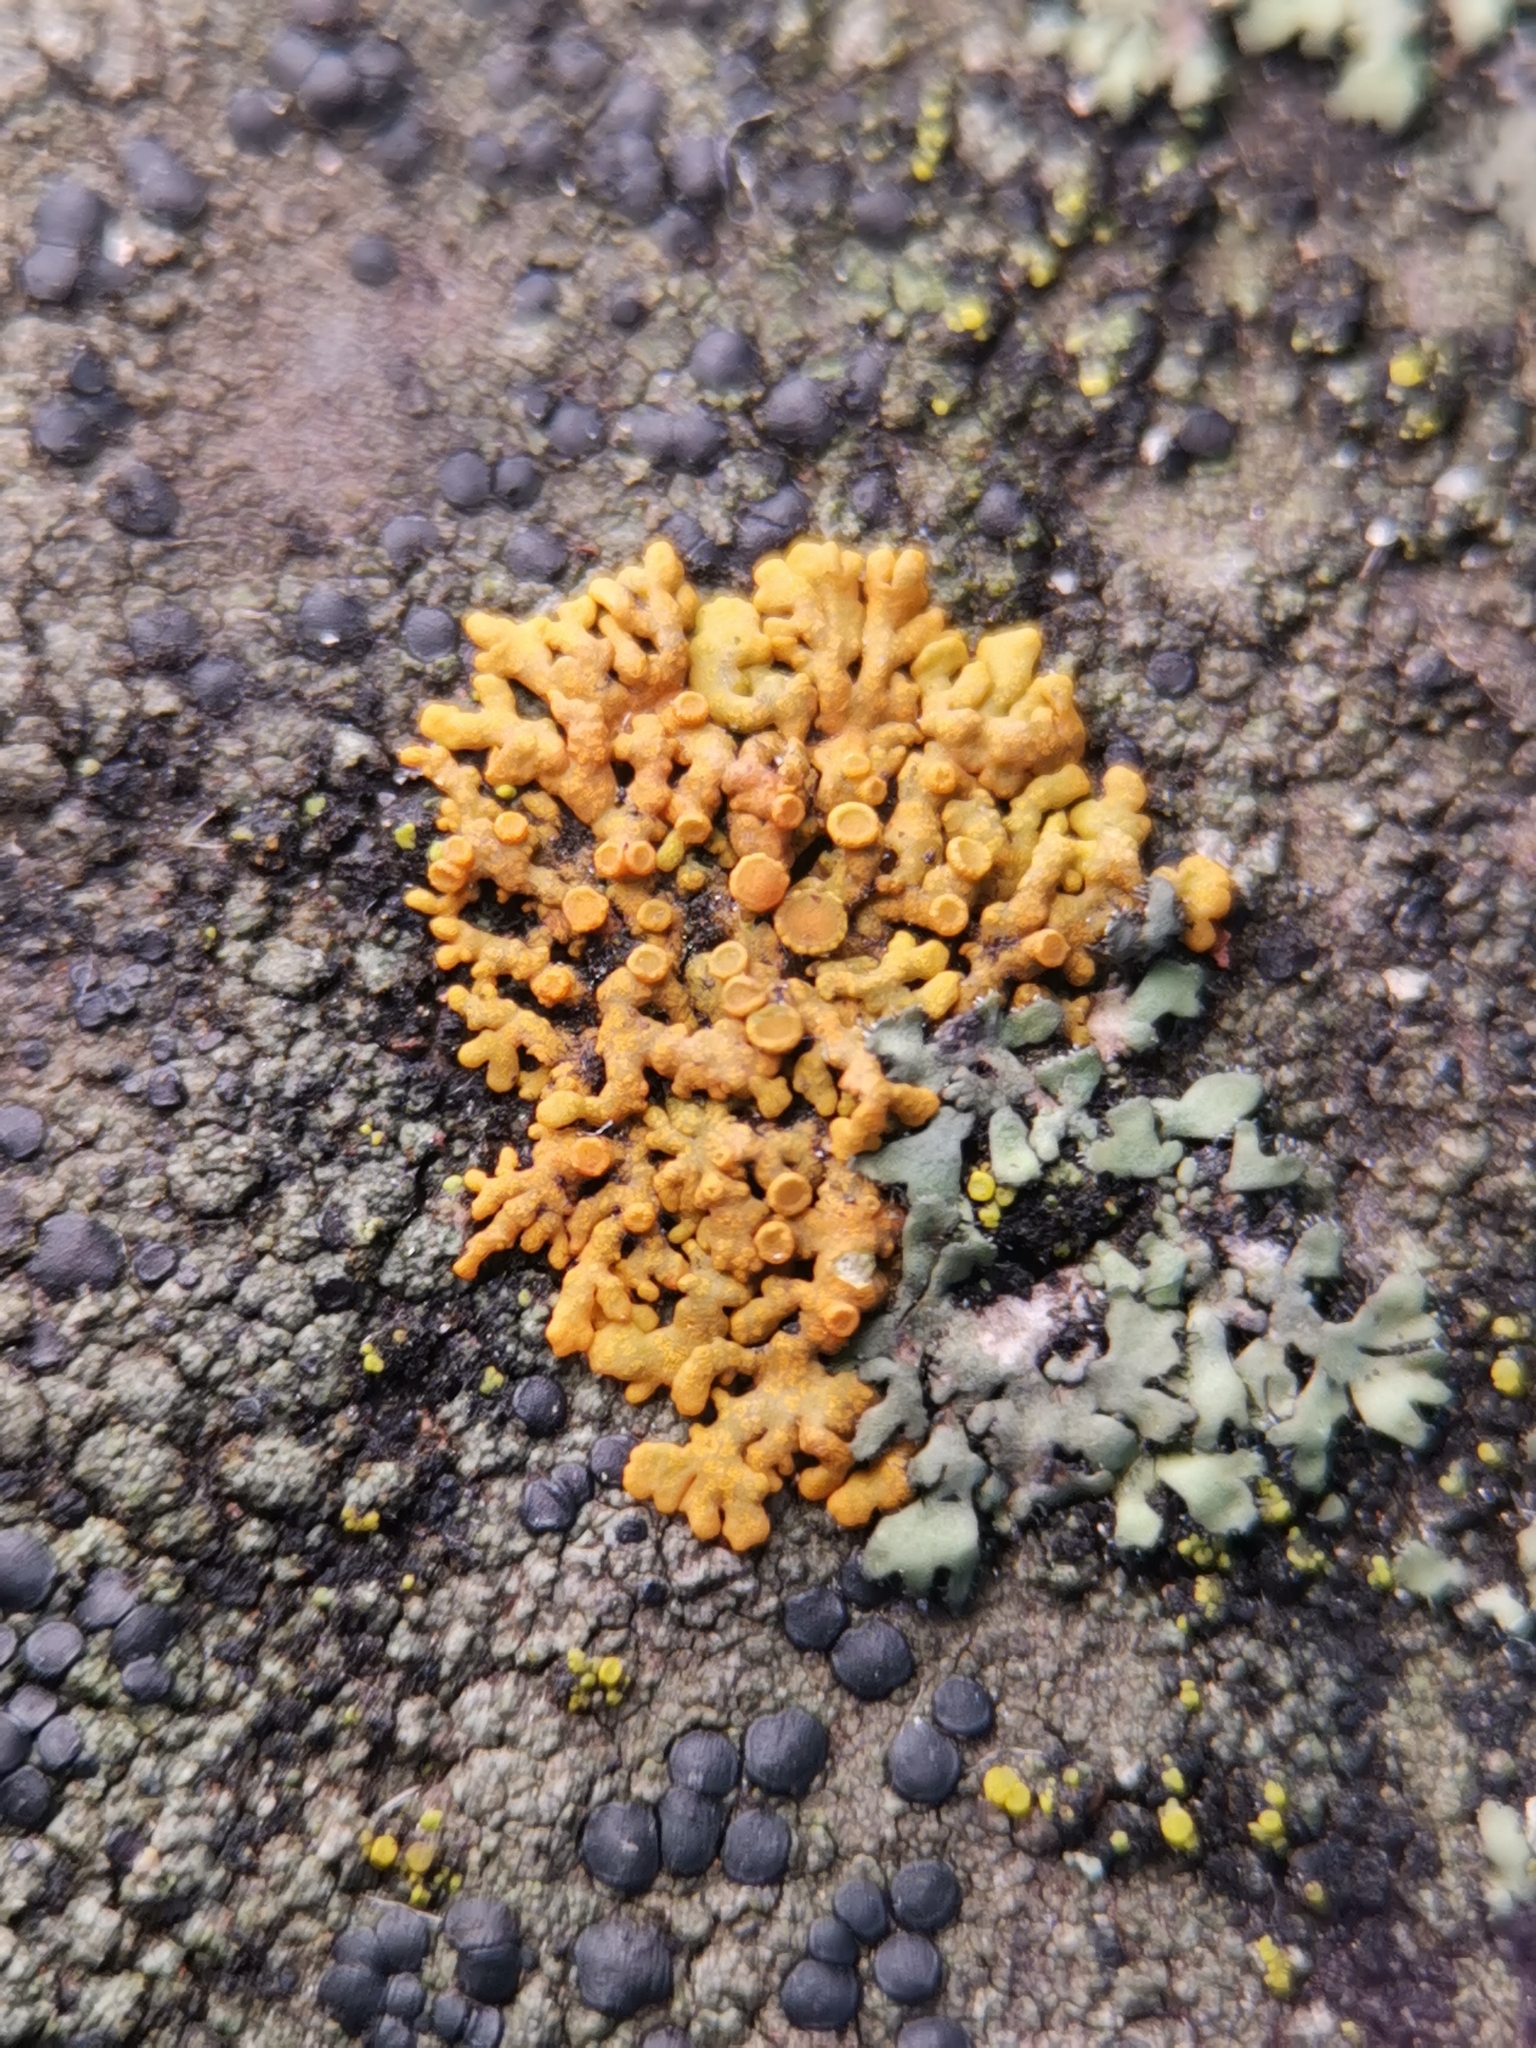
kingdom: Fungi
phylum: Ascomycota
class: Lecanoromycetes
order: Teloschistales
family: Teloschistaceae
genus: Xanthoria
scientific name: Xanthoria elegans
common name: Elegant sunburst lichen
